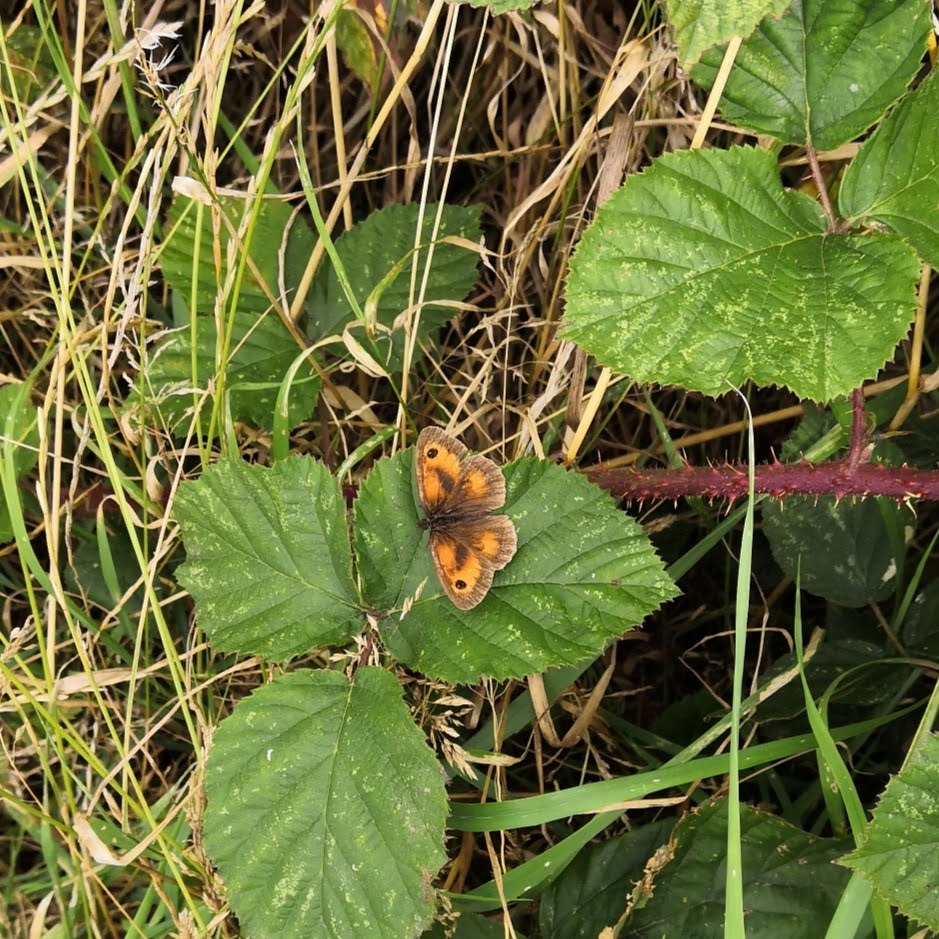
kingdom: Animalia
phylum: Arthropoda
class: Insecta
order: Lepidoptera
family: Nymphalidae
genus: Pyronia
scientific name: Pyronia tithonus
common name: Gatekeeper
